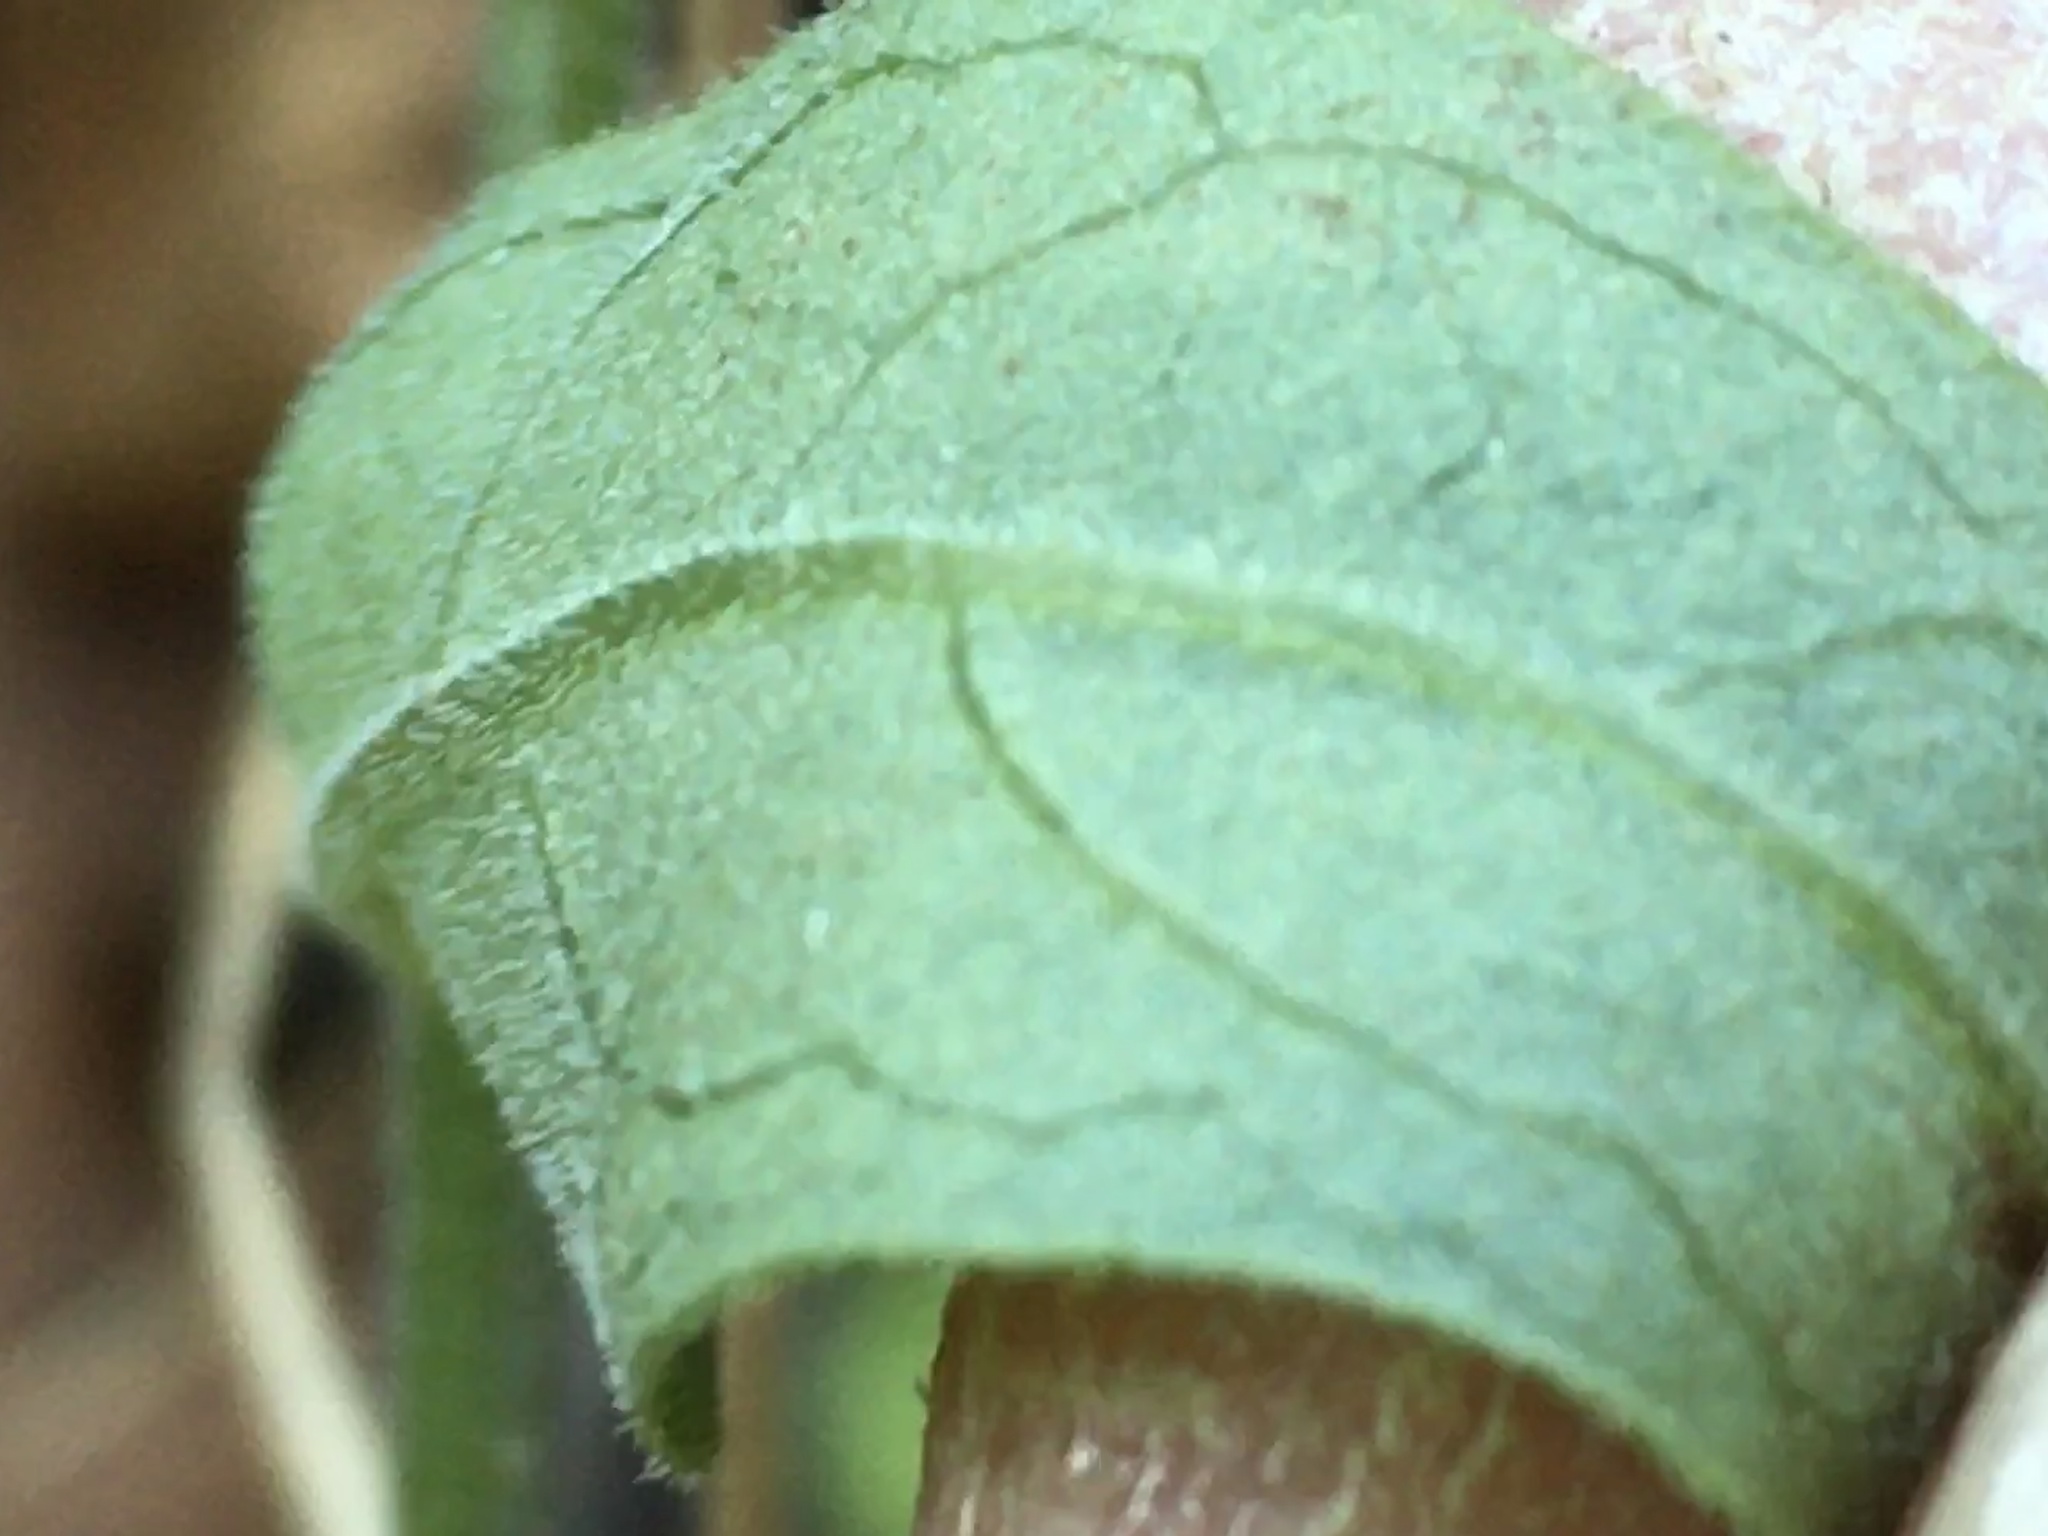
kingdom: Plantae
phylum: Tracheophyta
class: Magnoliopsida
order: Lamiales
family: Orobanchaceae
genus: Aureolaria
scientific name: Aureolaria virginica
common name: Downy false foxglove
